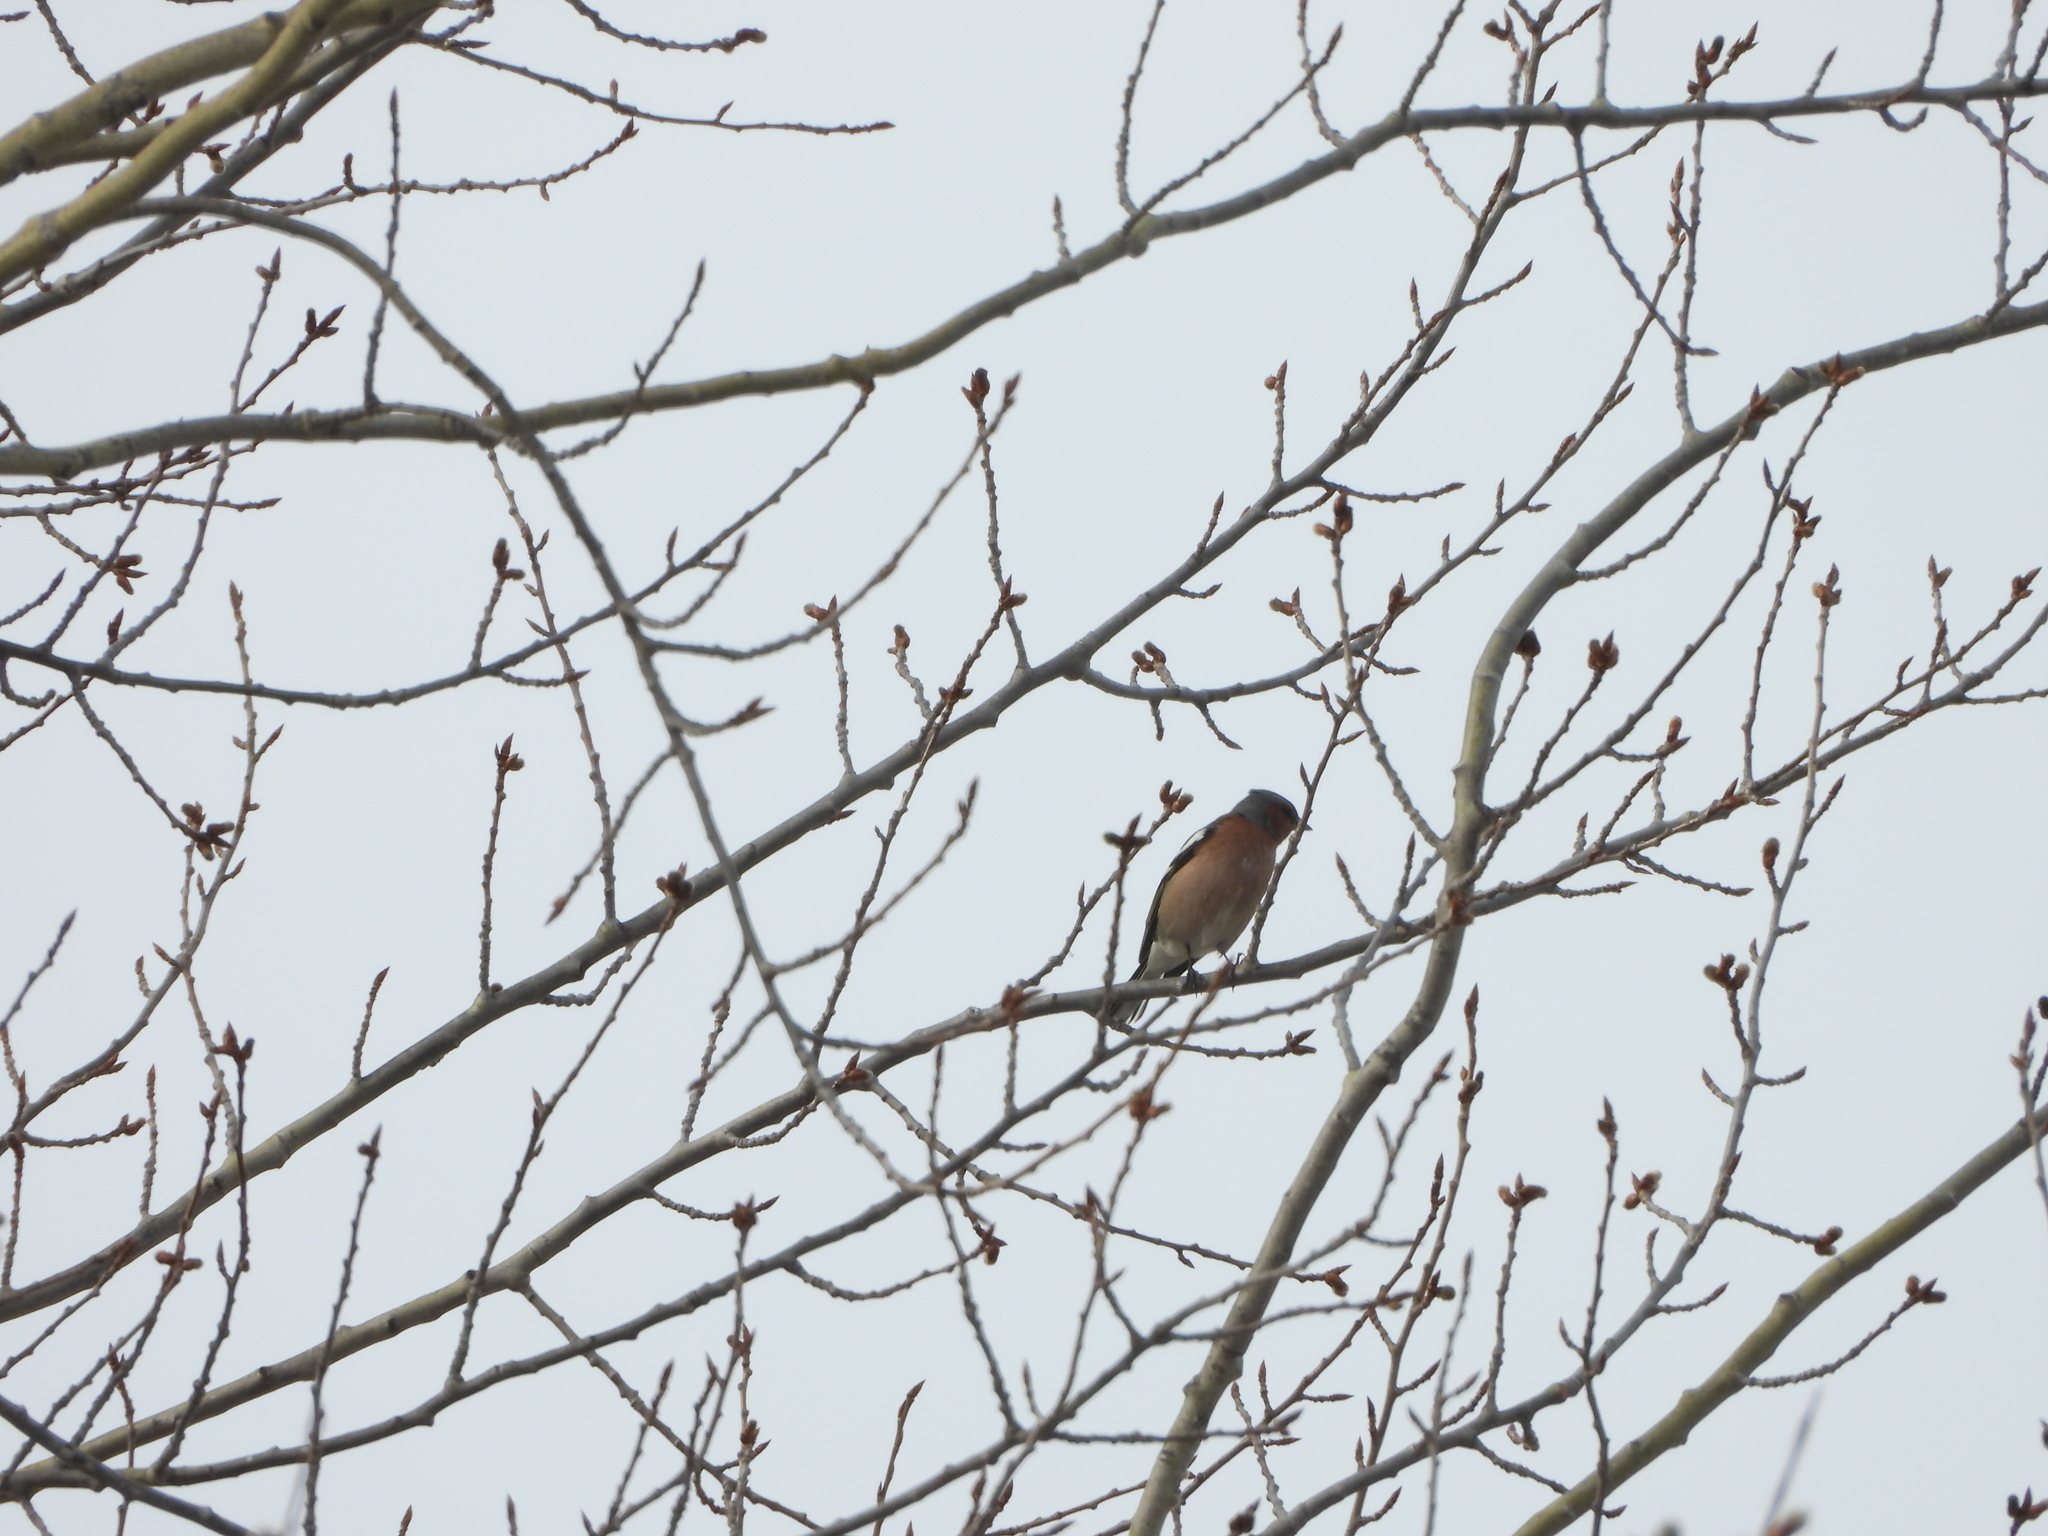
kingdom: Animalia
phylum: Chordata
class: Aves
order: Passeriformes
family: Fringillidae
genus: Fringilla
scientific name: Fringilla coelebs
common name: Common chaffinch
